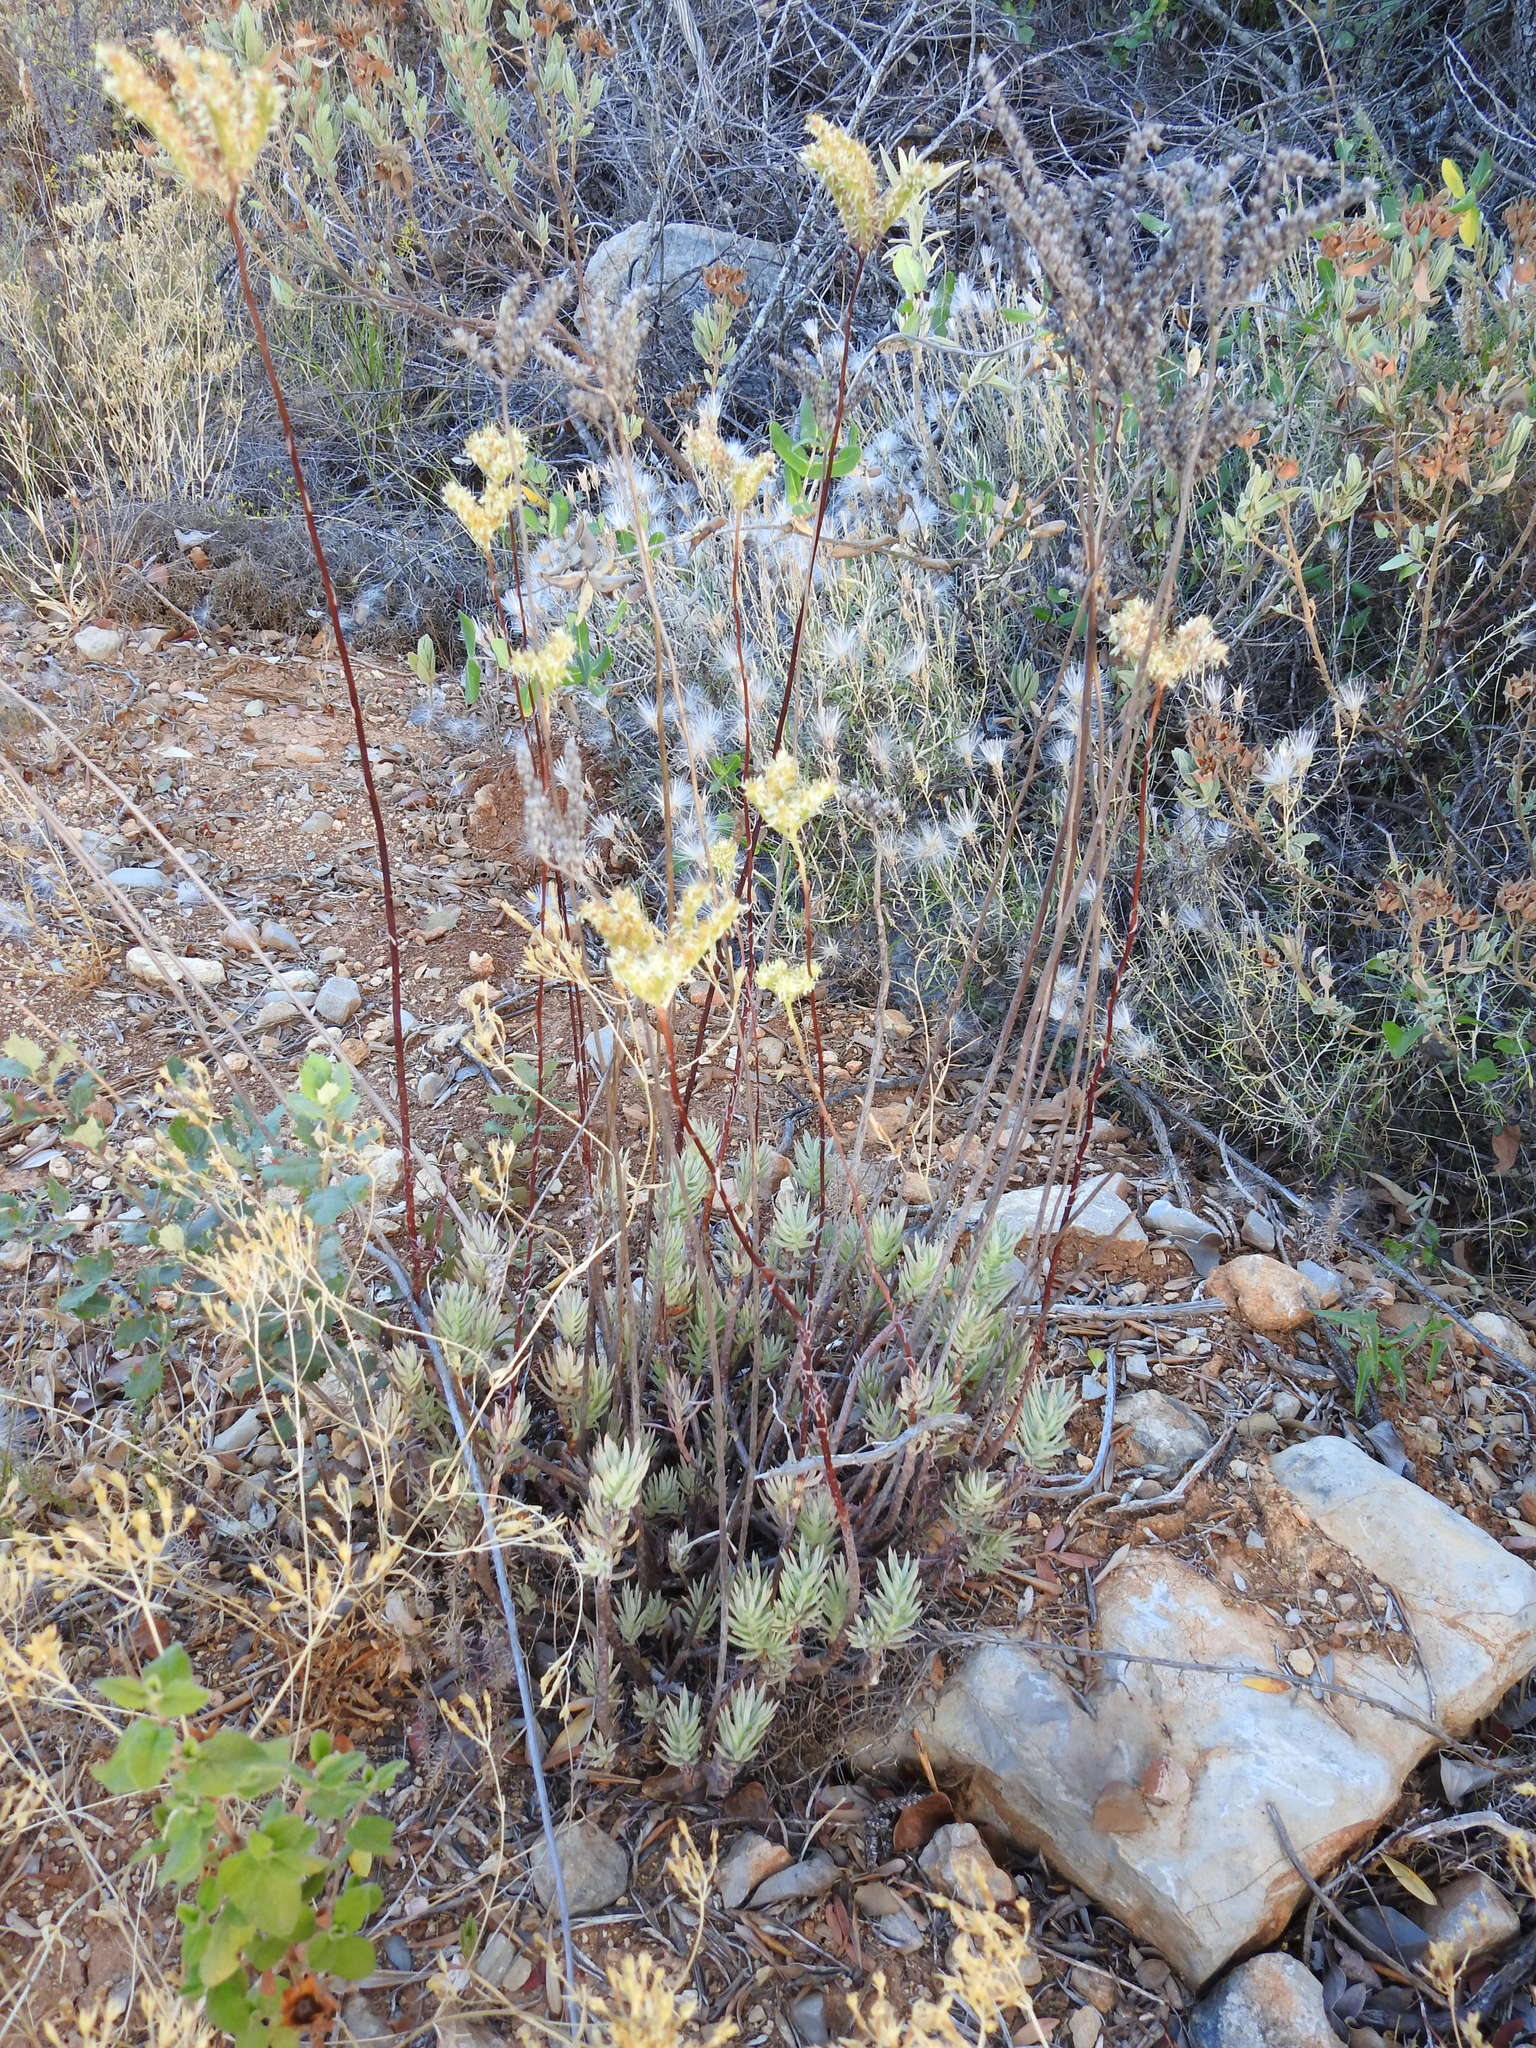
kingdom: Plantae
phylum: Tracheophyta
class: Magnoliopsida
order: Saxifragales
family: Crassulaceae
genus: Petrosedum
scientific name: Petrosedum sediforme
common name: Pale stonecrop
